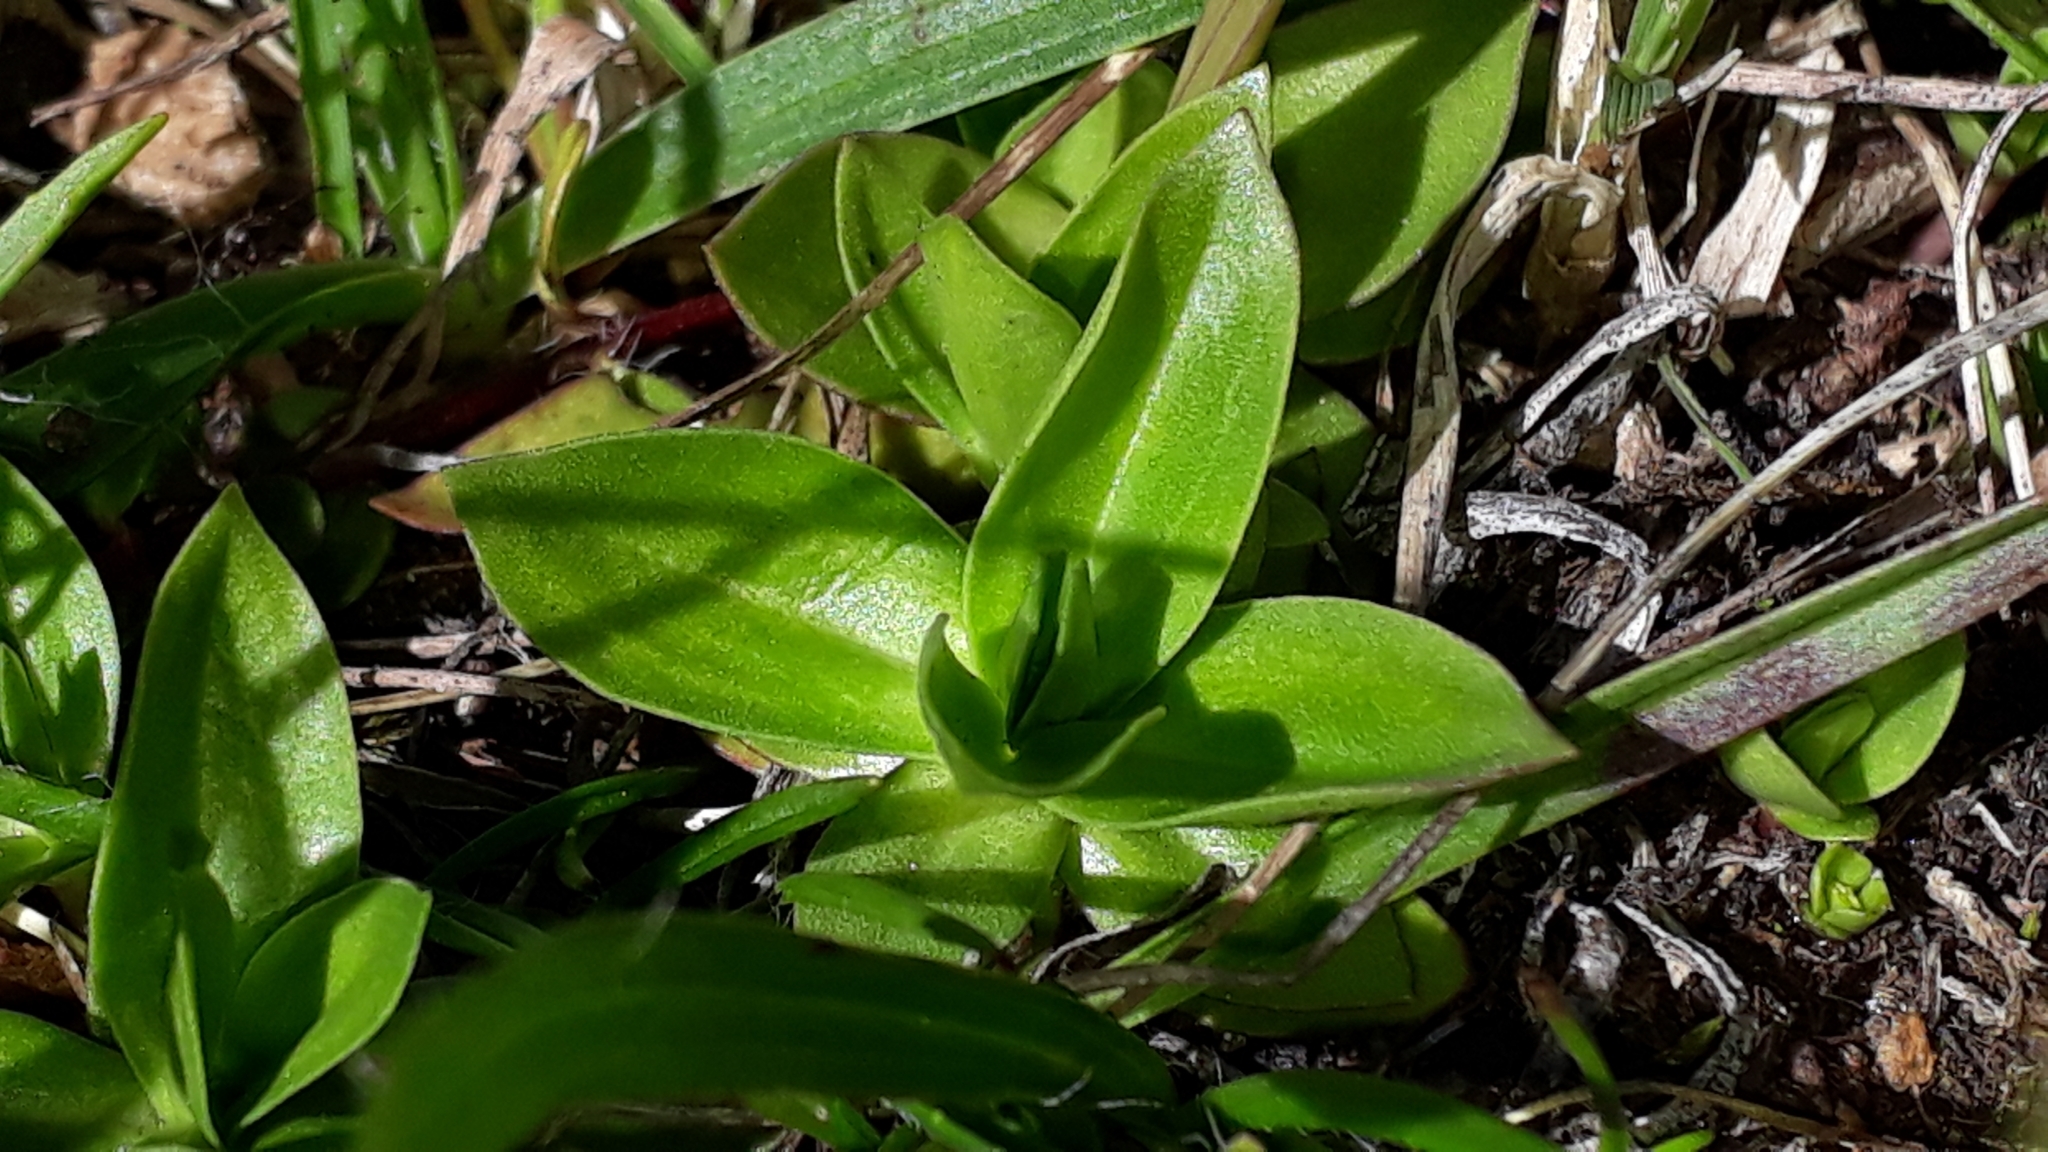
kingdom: Plantae
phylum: Tracheophyta
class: Magnoliopsida
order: Gentianales
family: Gentianaceae
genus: Gentiana
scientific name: Gentiana verna
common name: Spring gentian
